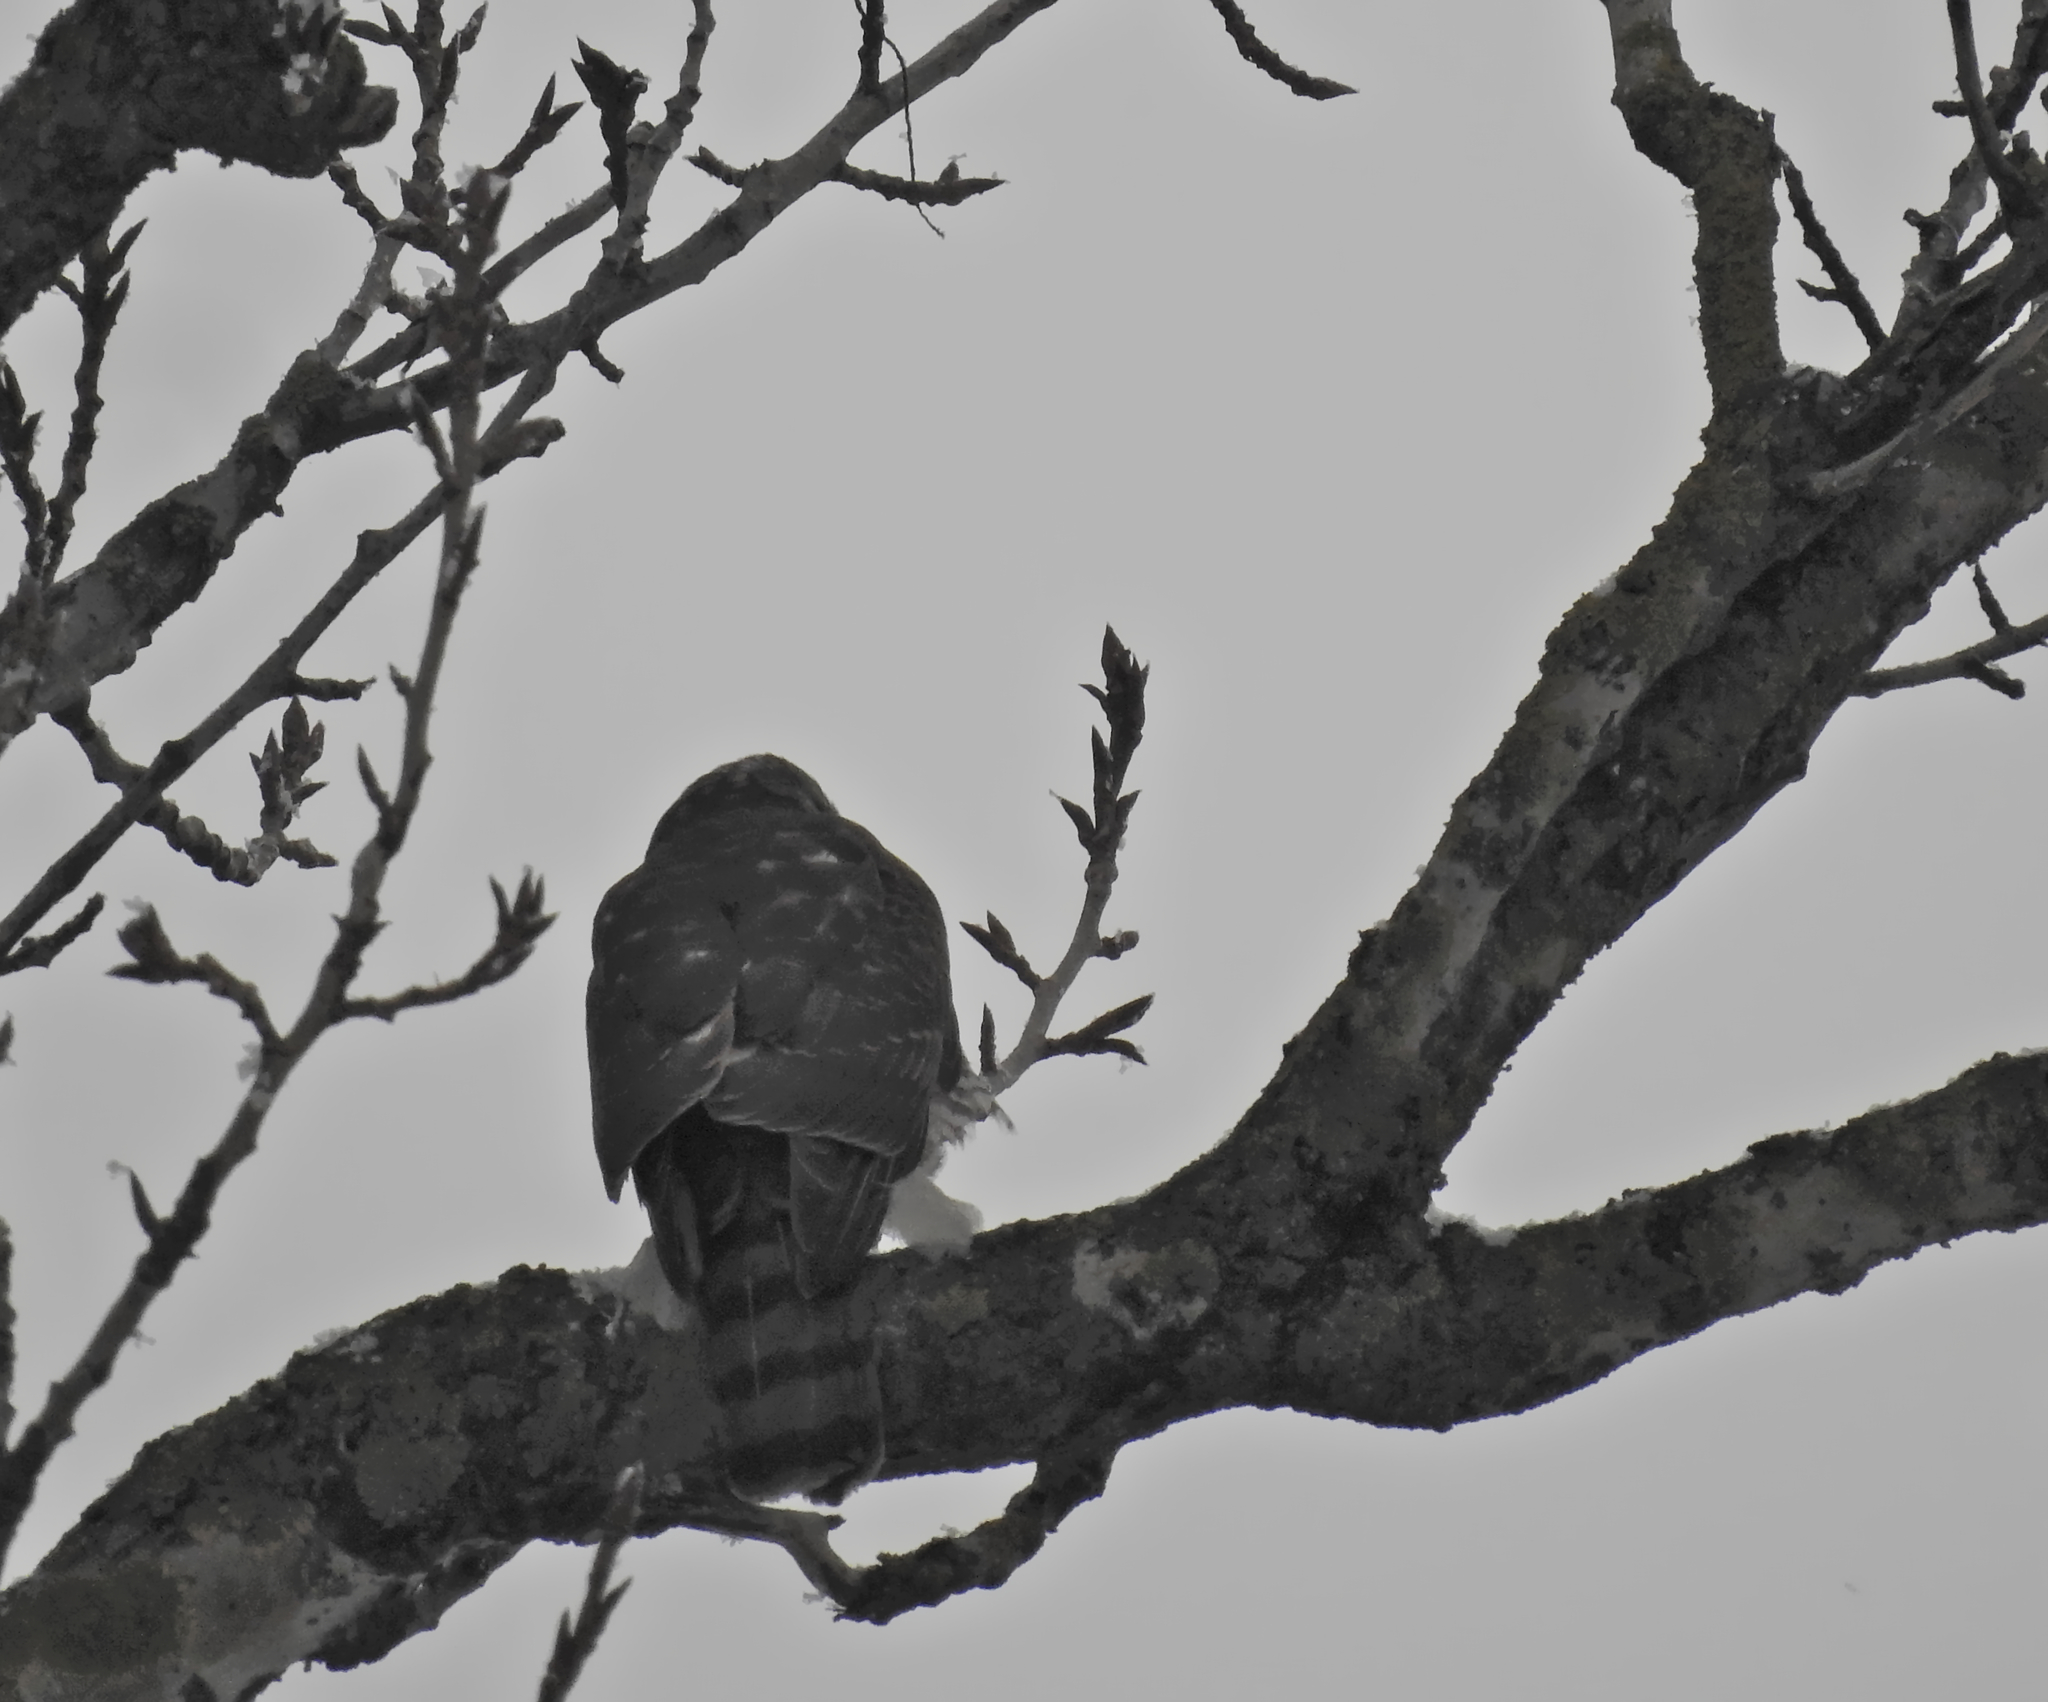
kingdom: Animalia
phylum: Chordata
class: Aves
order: Accipitriformes
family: Accipitridae
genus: Accipiter
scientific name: Accipiter nisus
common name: Eurasian sparrowhawk
